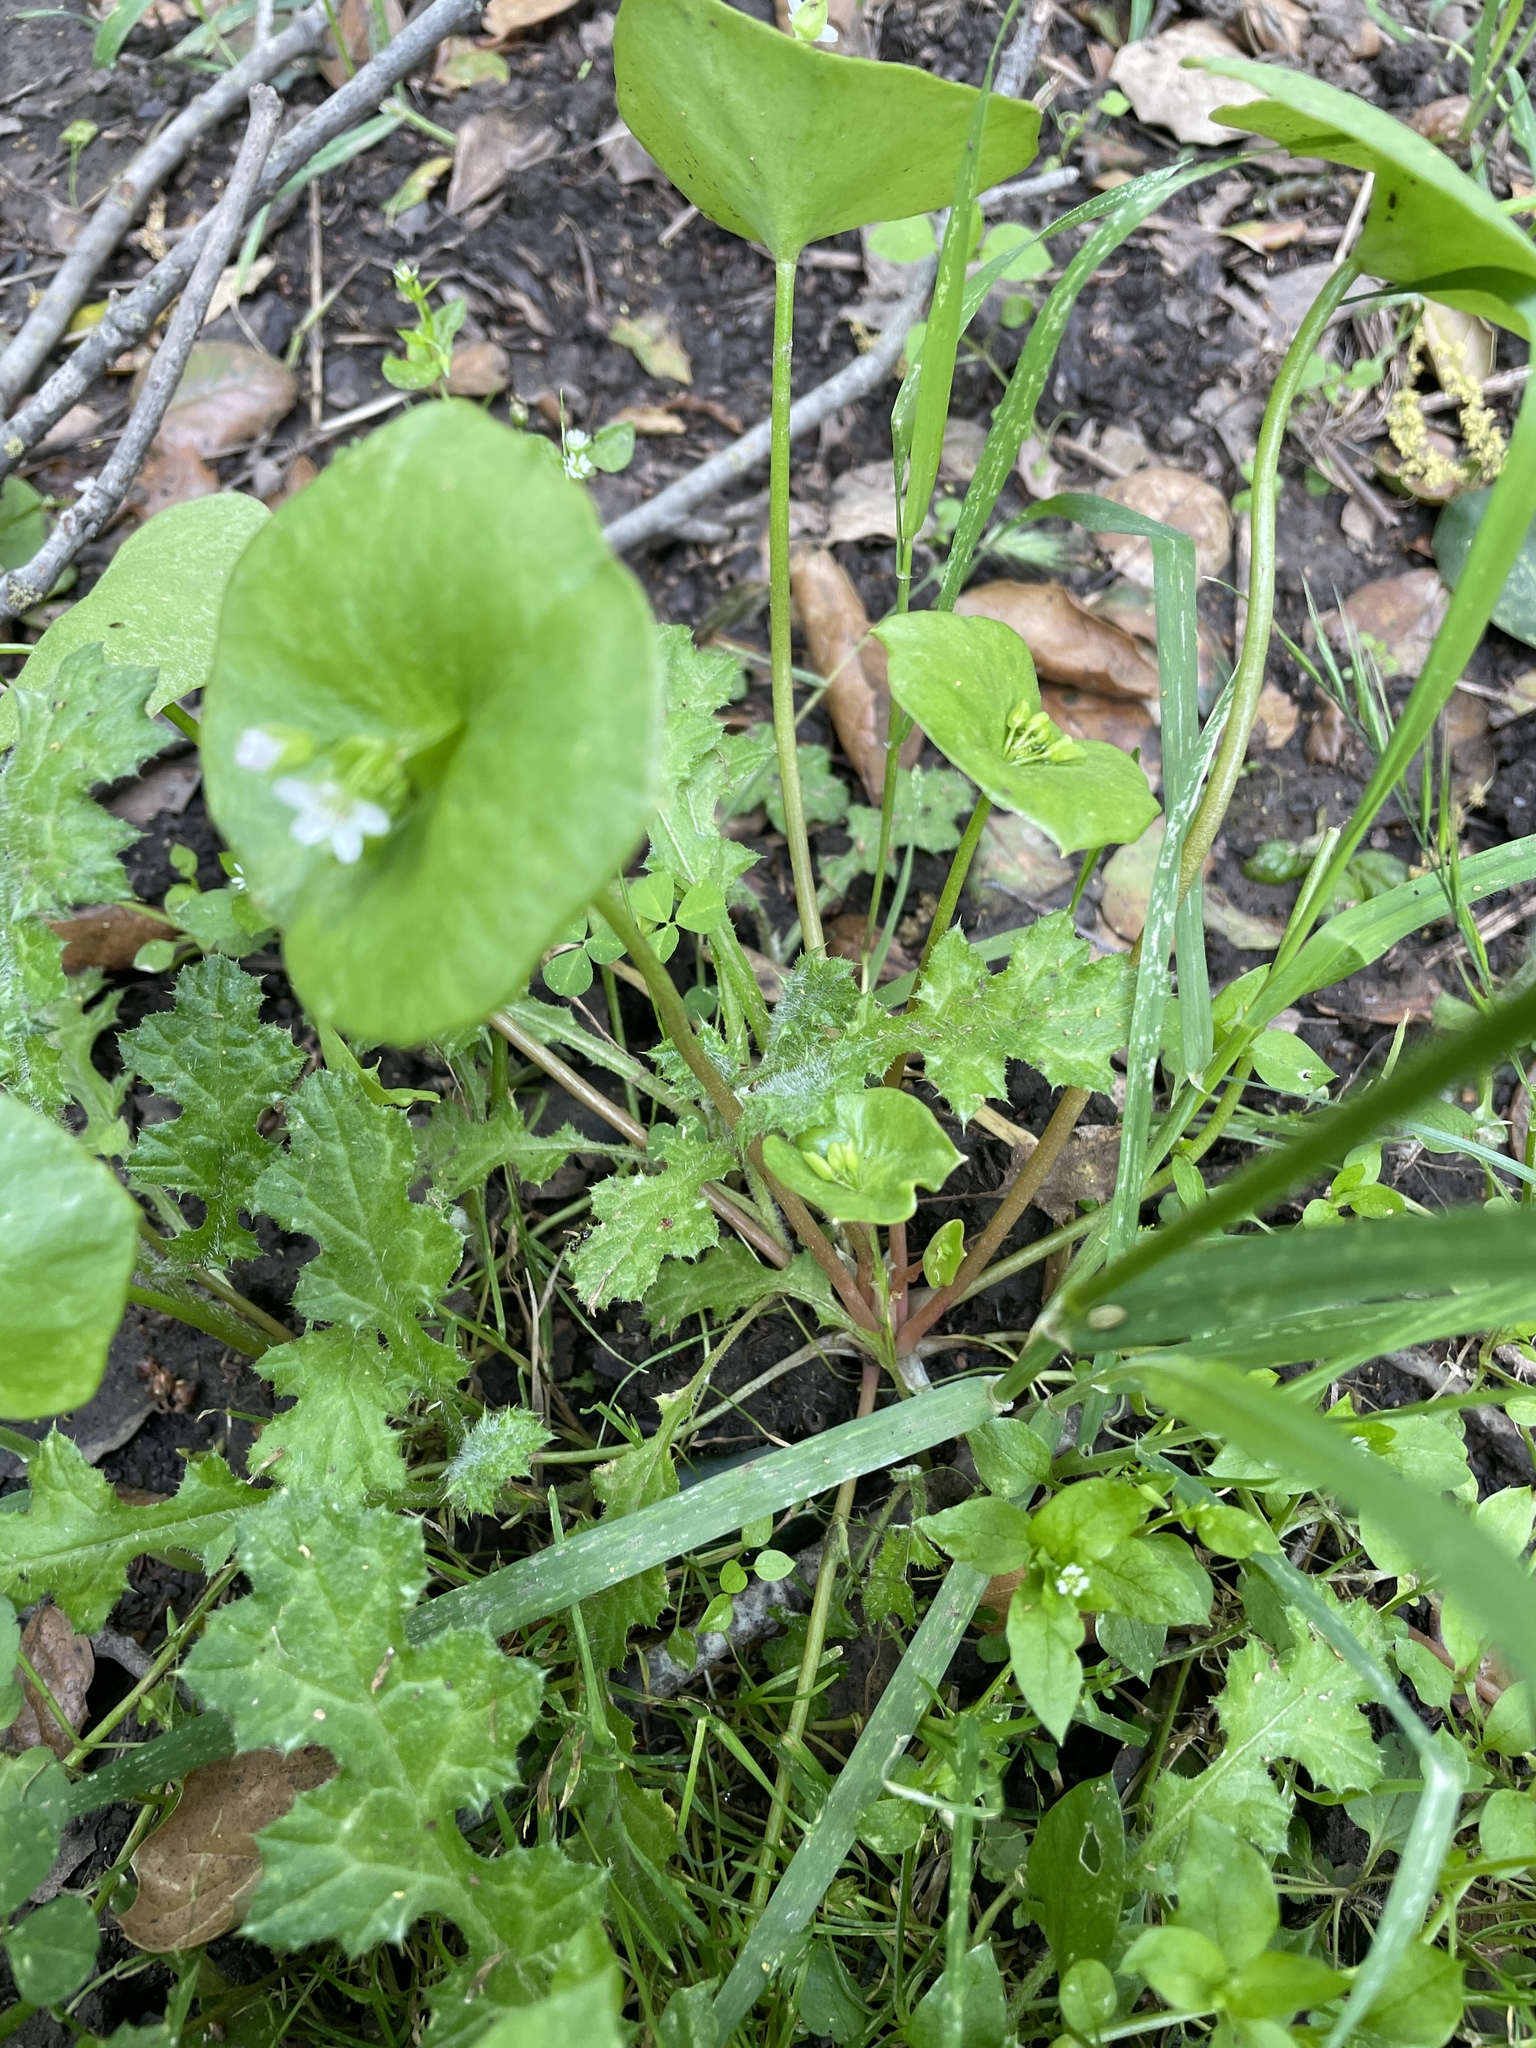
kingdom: Plantae
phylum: Tracheophyta
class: Magnoliopsida
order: Caryophyllales
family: Montiaceae
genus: Claytonia
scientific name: Claytonia perfoliata
